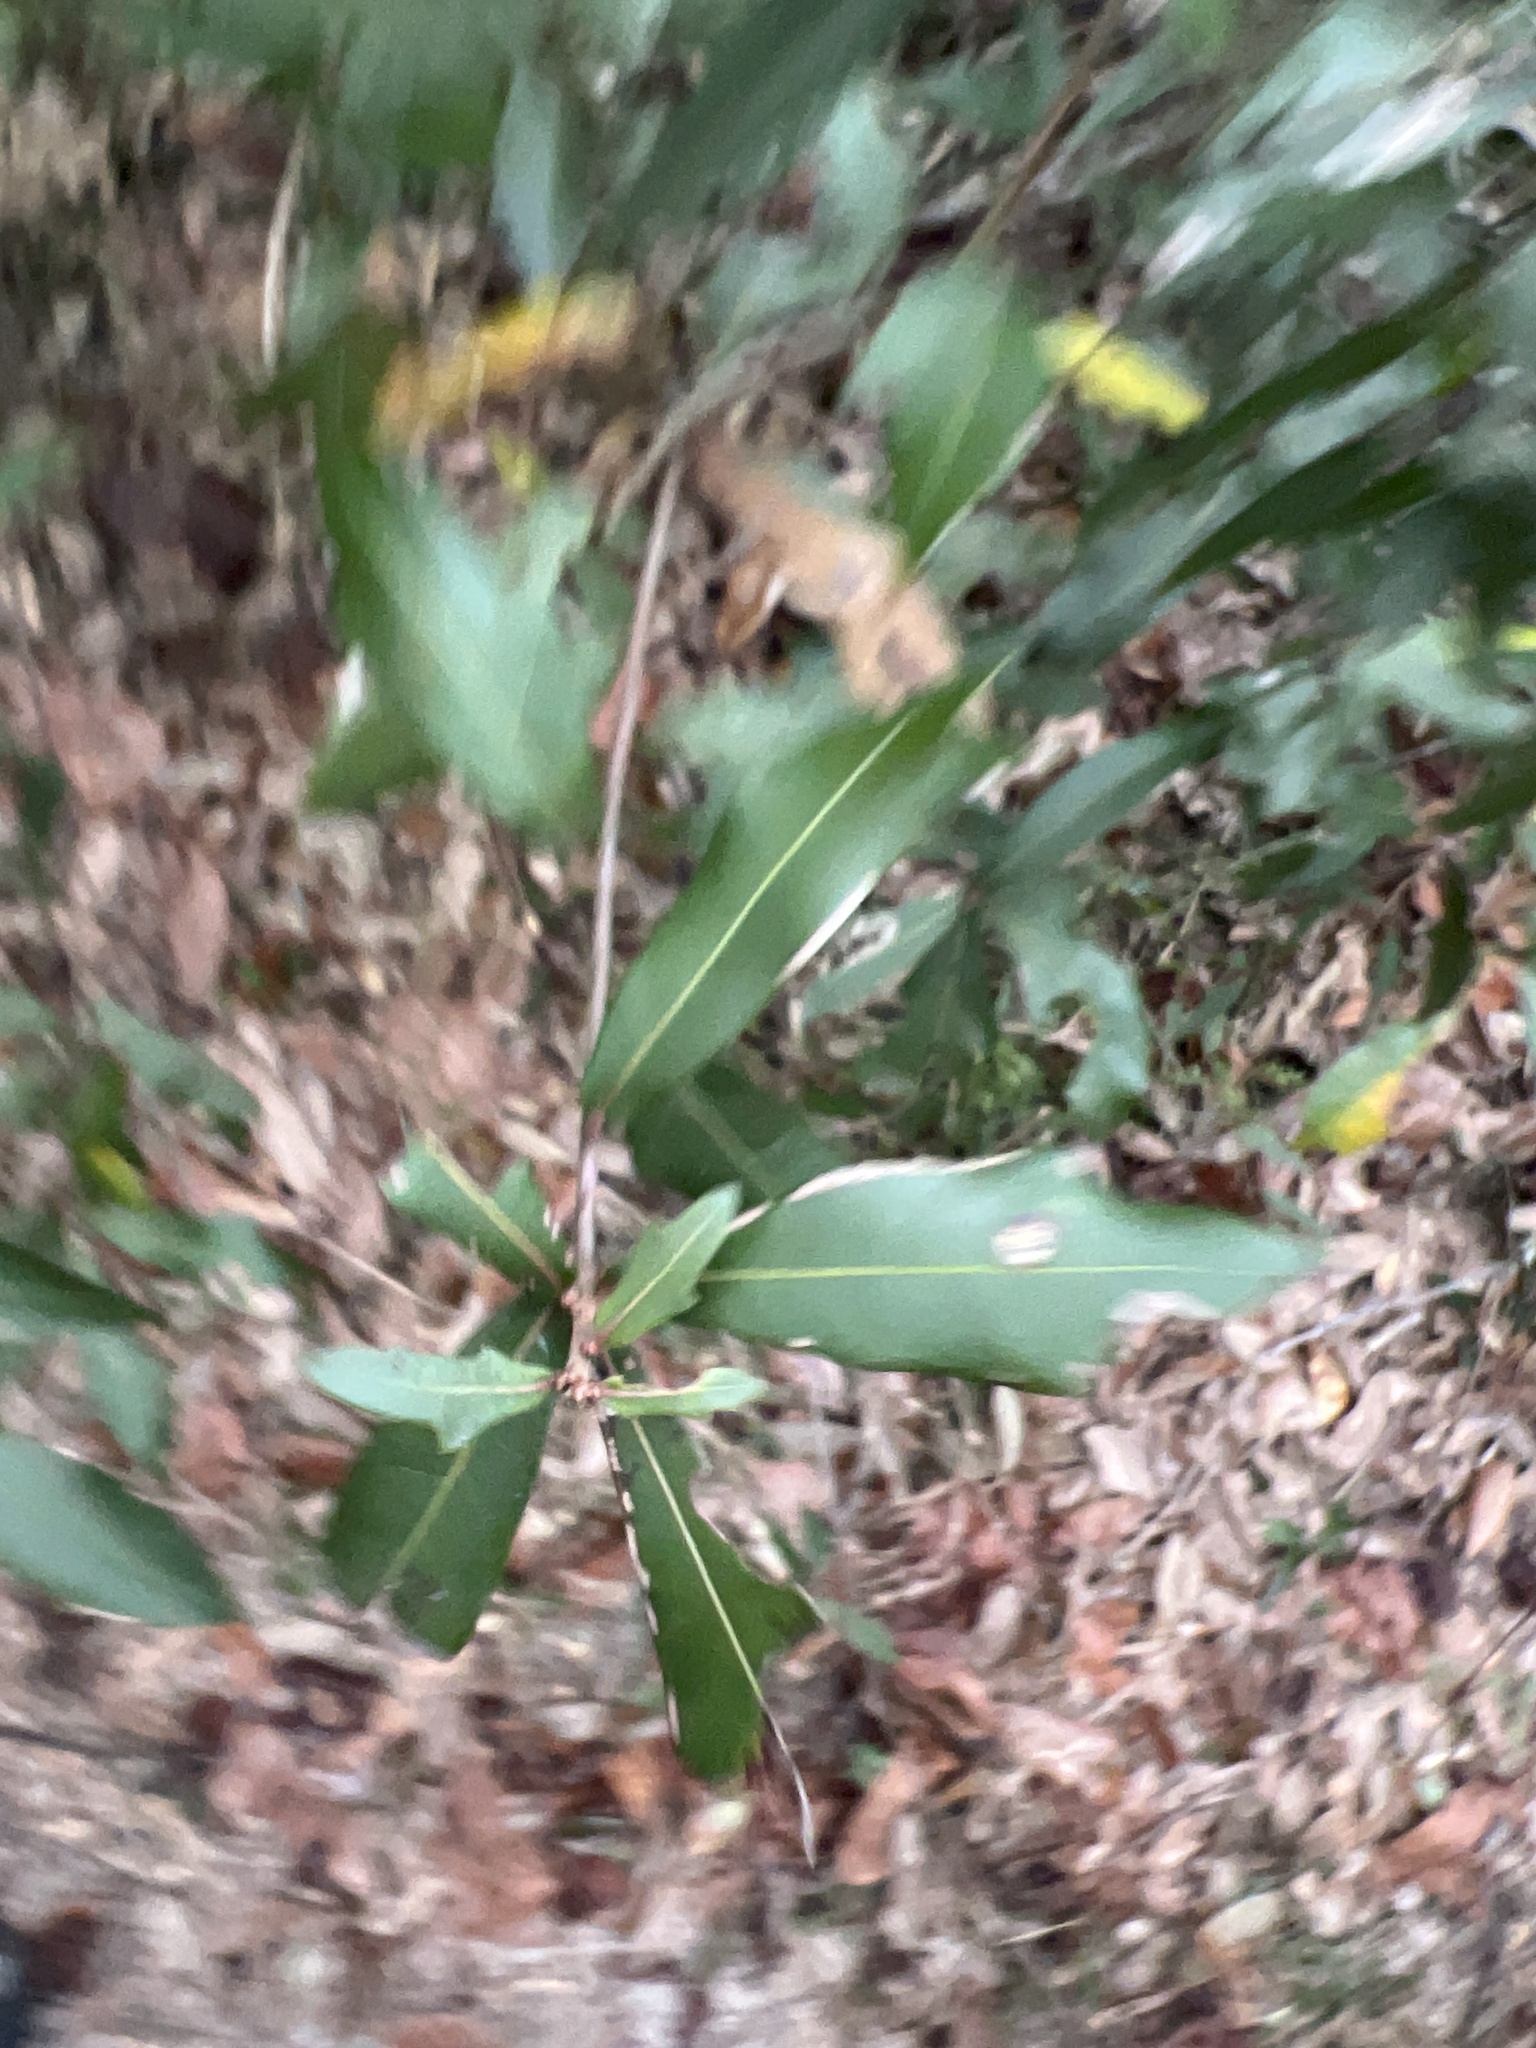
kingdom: Plantae
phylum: Tracheophyta
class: Magnoliopsida
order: Fagales
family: Fagaceae
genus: Quercus
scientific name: Quercus hemisphaerica
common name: Darlington oak
